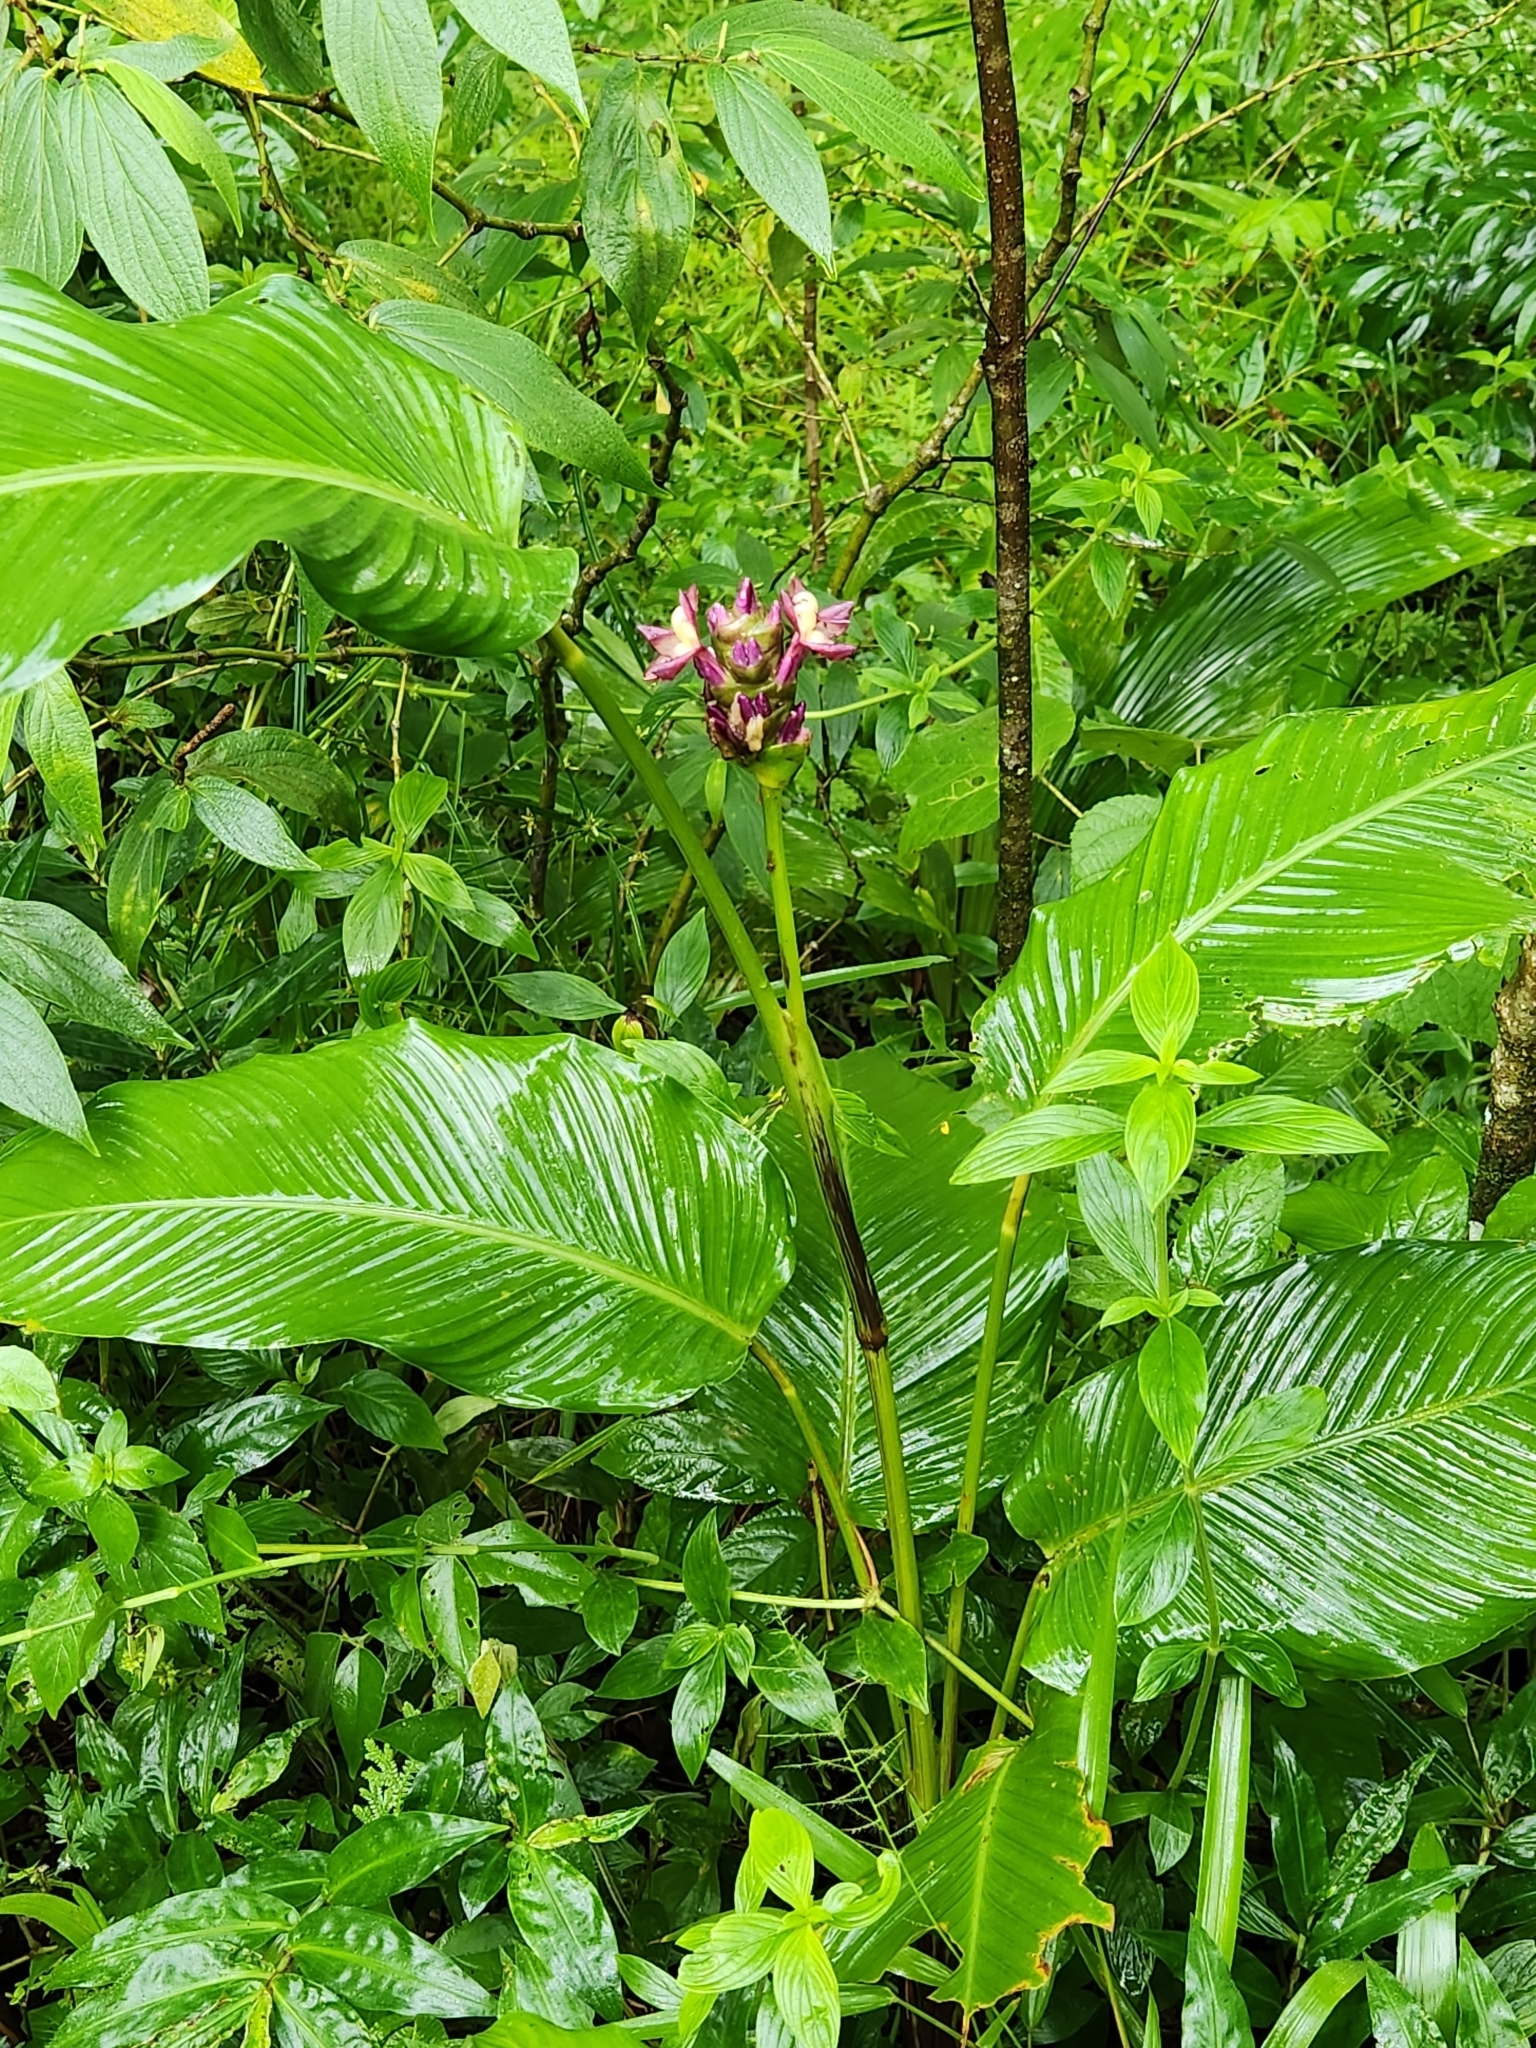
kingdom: Plantae
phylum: Tracheophyta
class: Liliopsida
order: Zingiberales
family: Marantaceae
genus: Goeppertia
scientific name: Goeppertia latifolia
